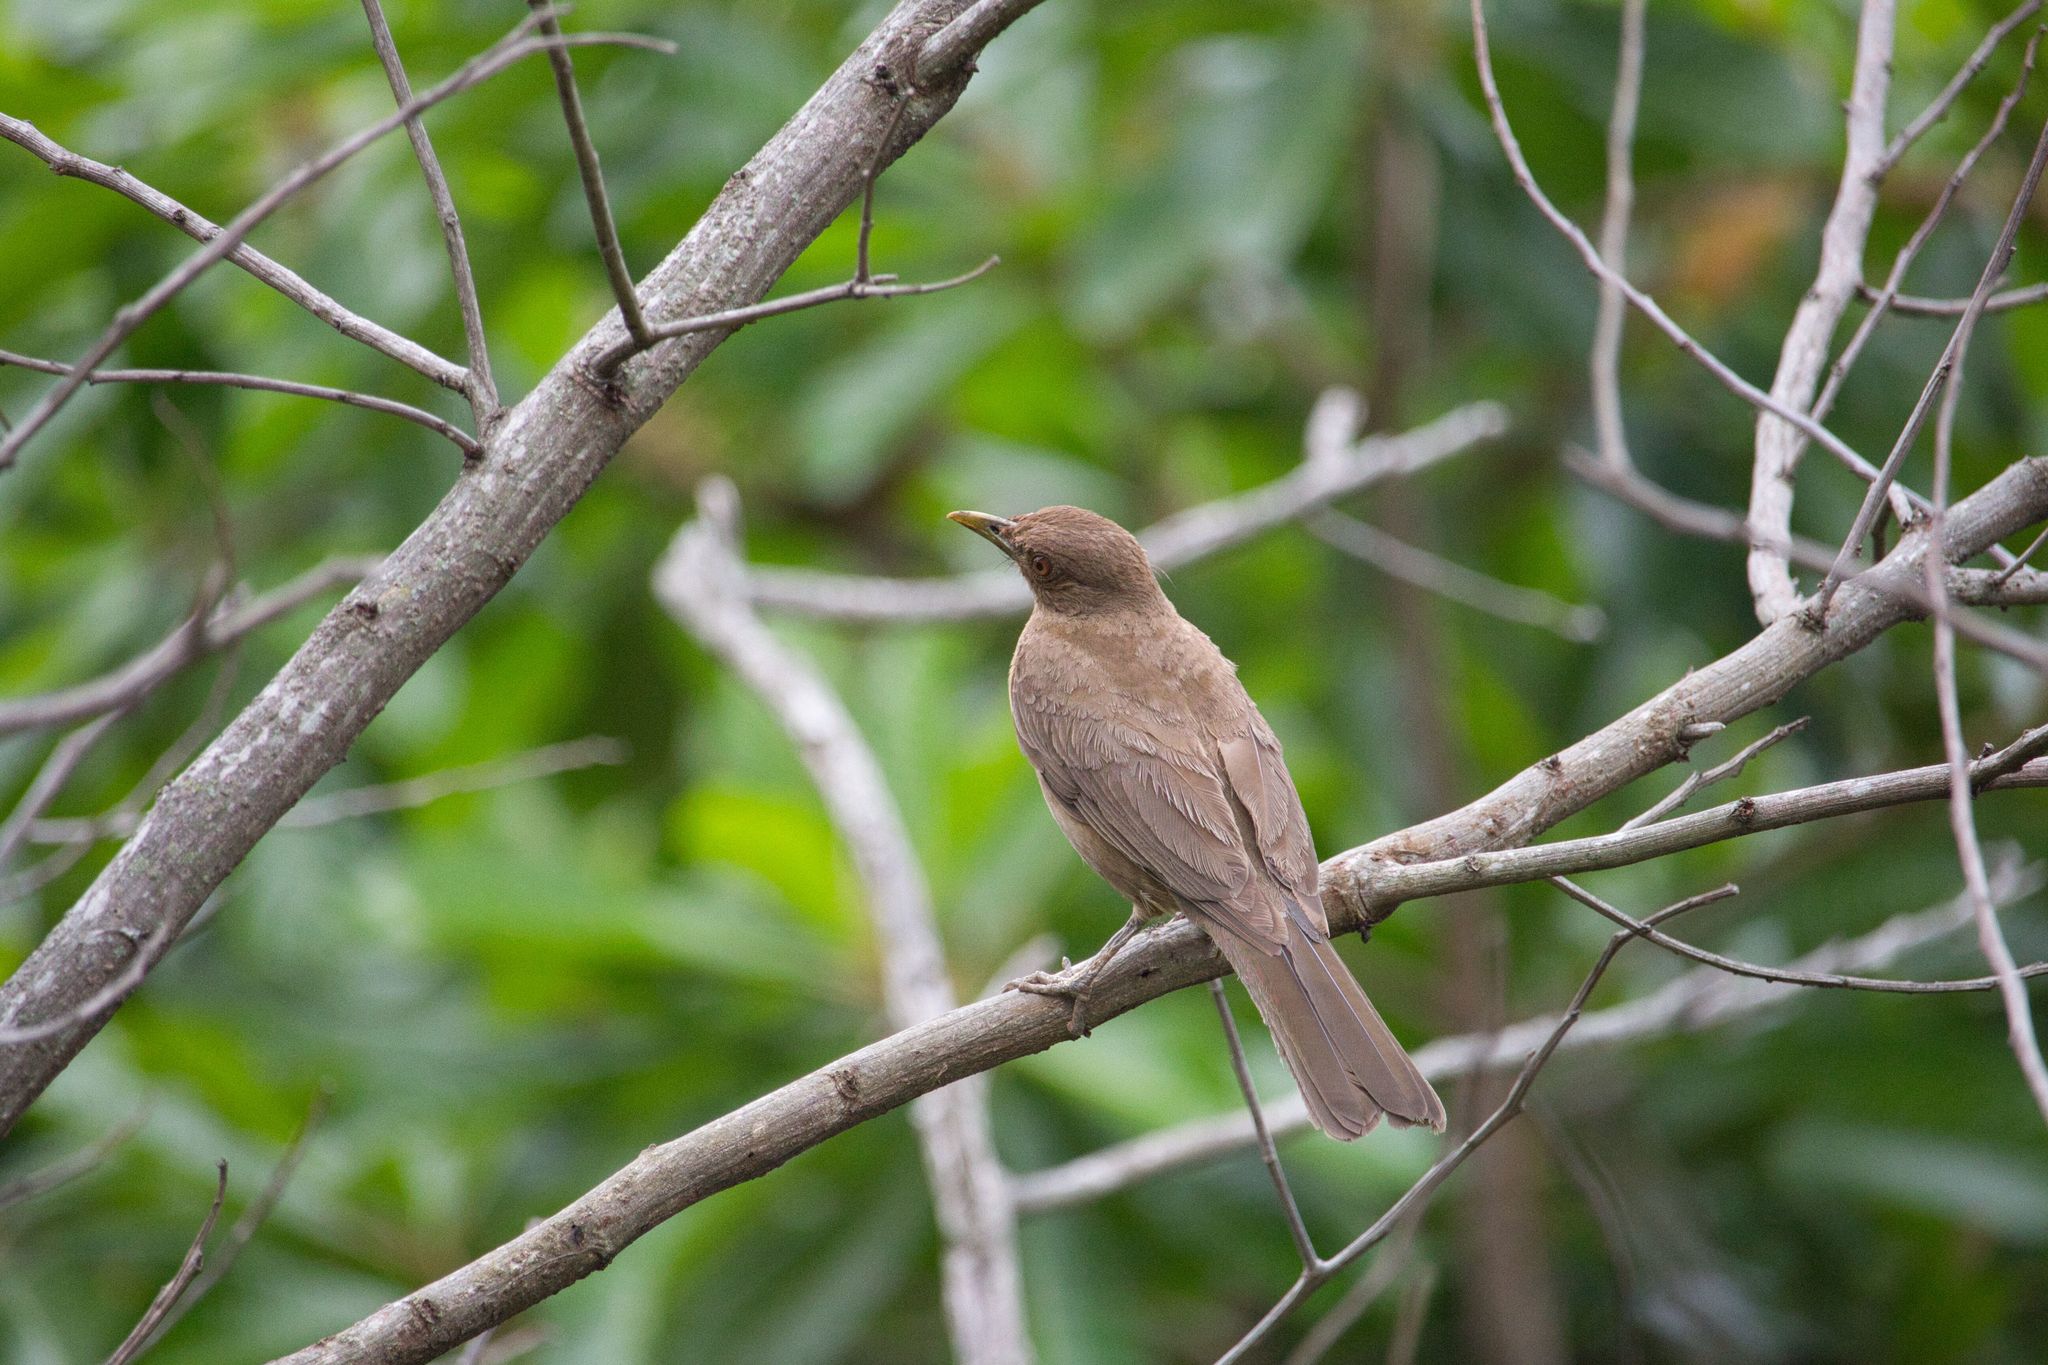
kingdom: Animalia
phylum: Chordata
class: Aves
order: Passeriformes
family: Turdidae
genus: Turdus
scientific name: Turdus grayi
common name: Clay-colored thrush
